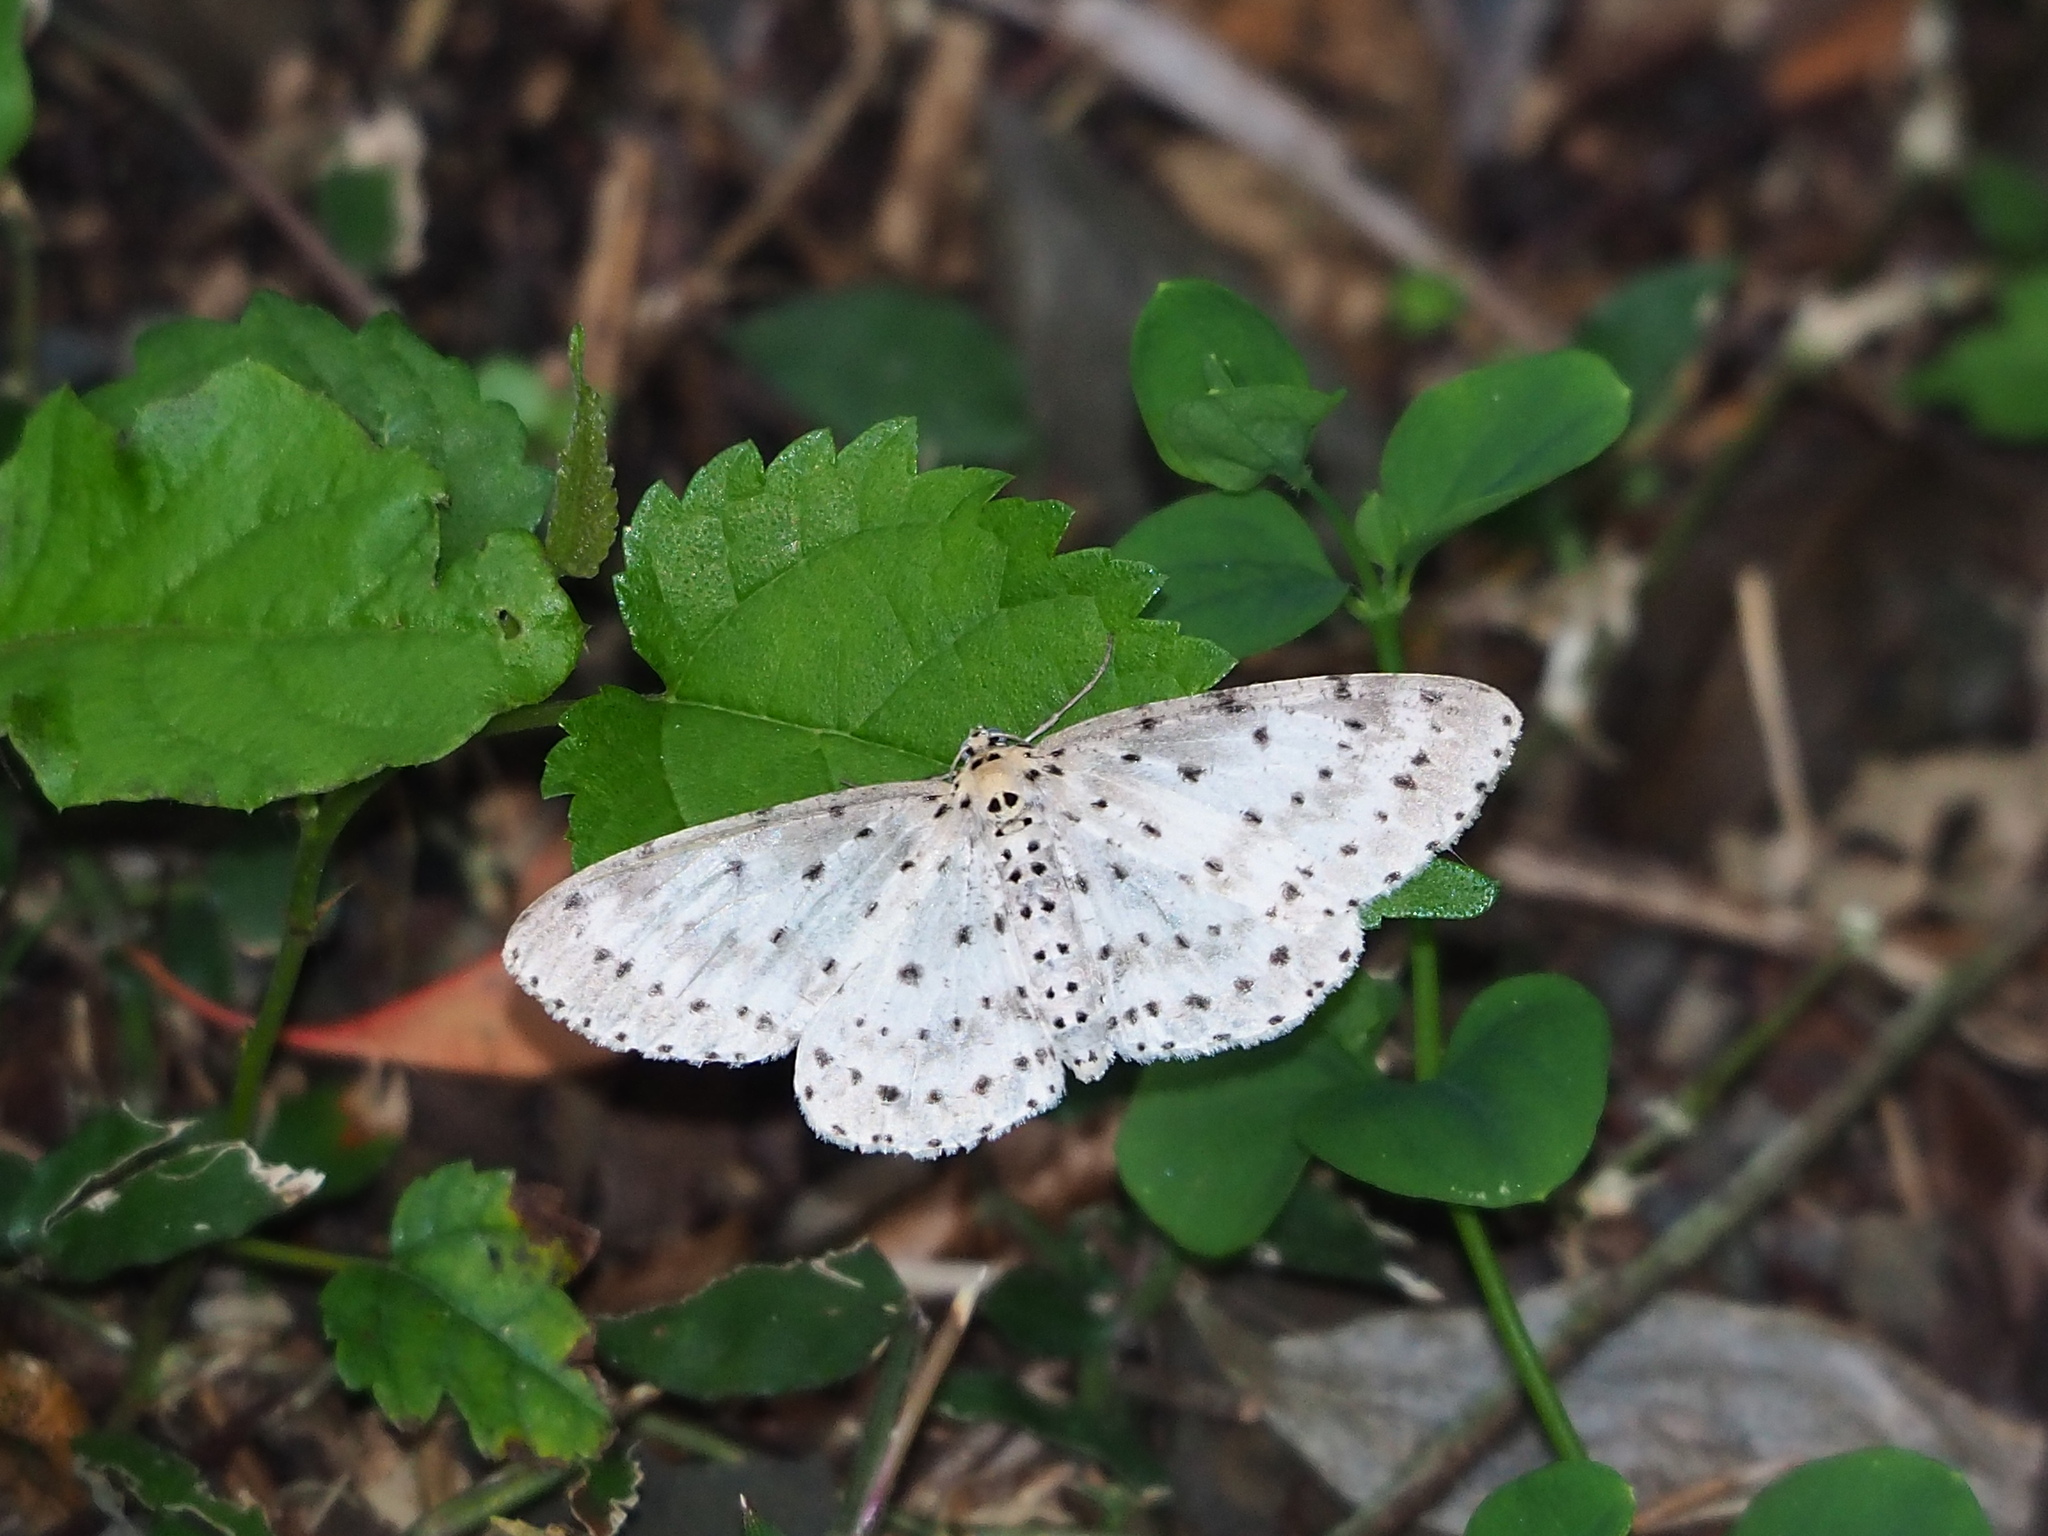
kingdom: Animalia
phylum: Arthropoda
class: Insecta
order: Lepidoptera
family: Geometridae
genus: Percnia
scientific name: Percnia suffusa
